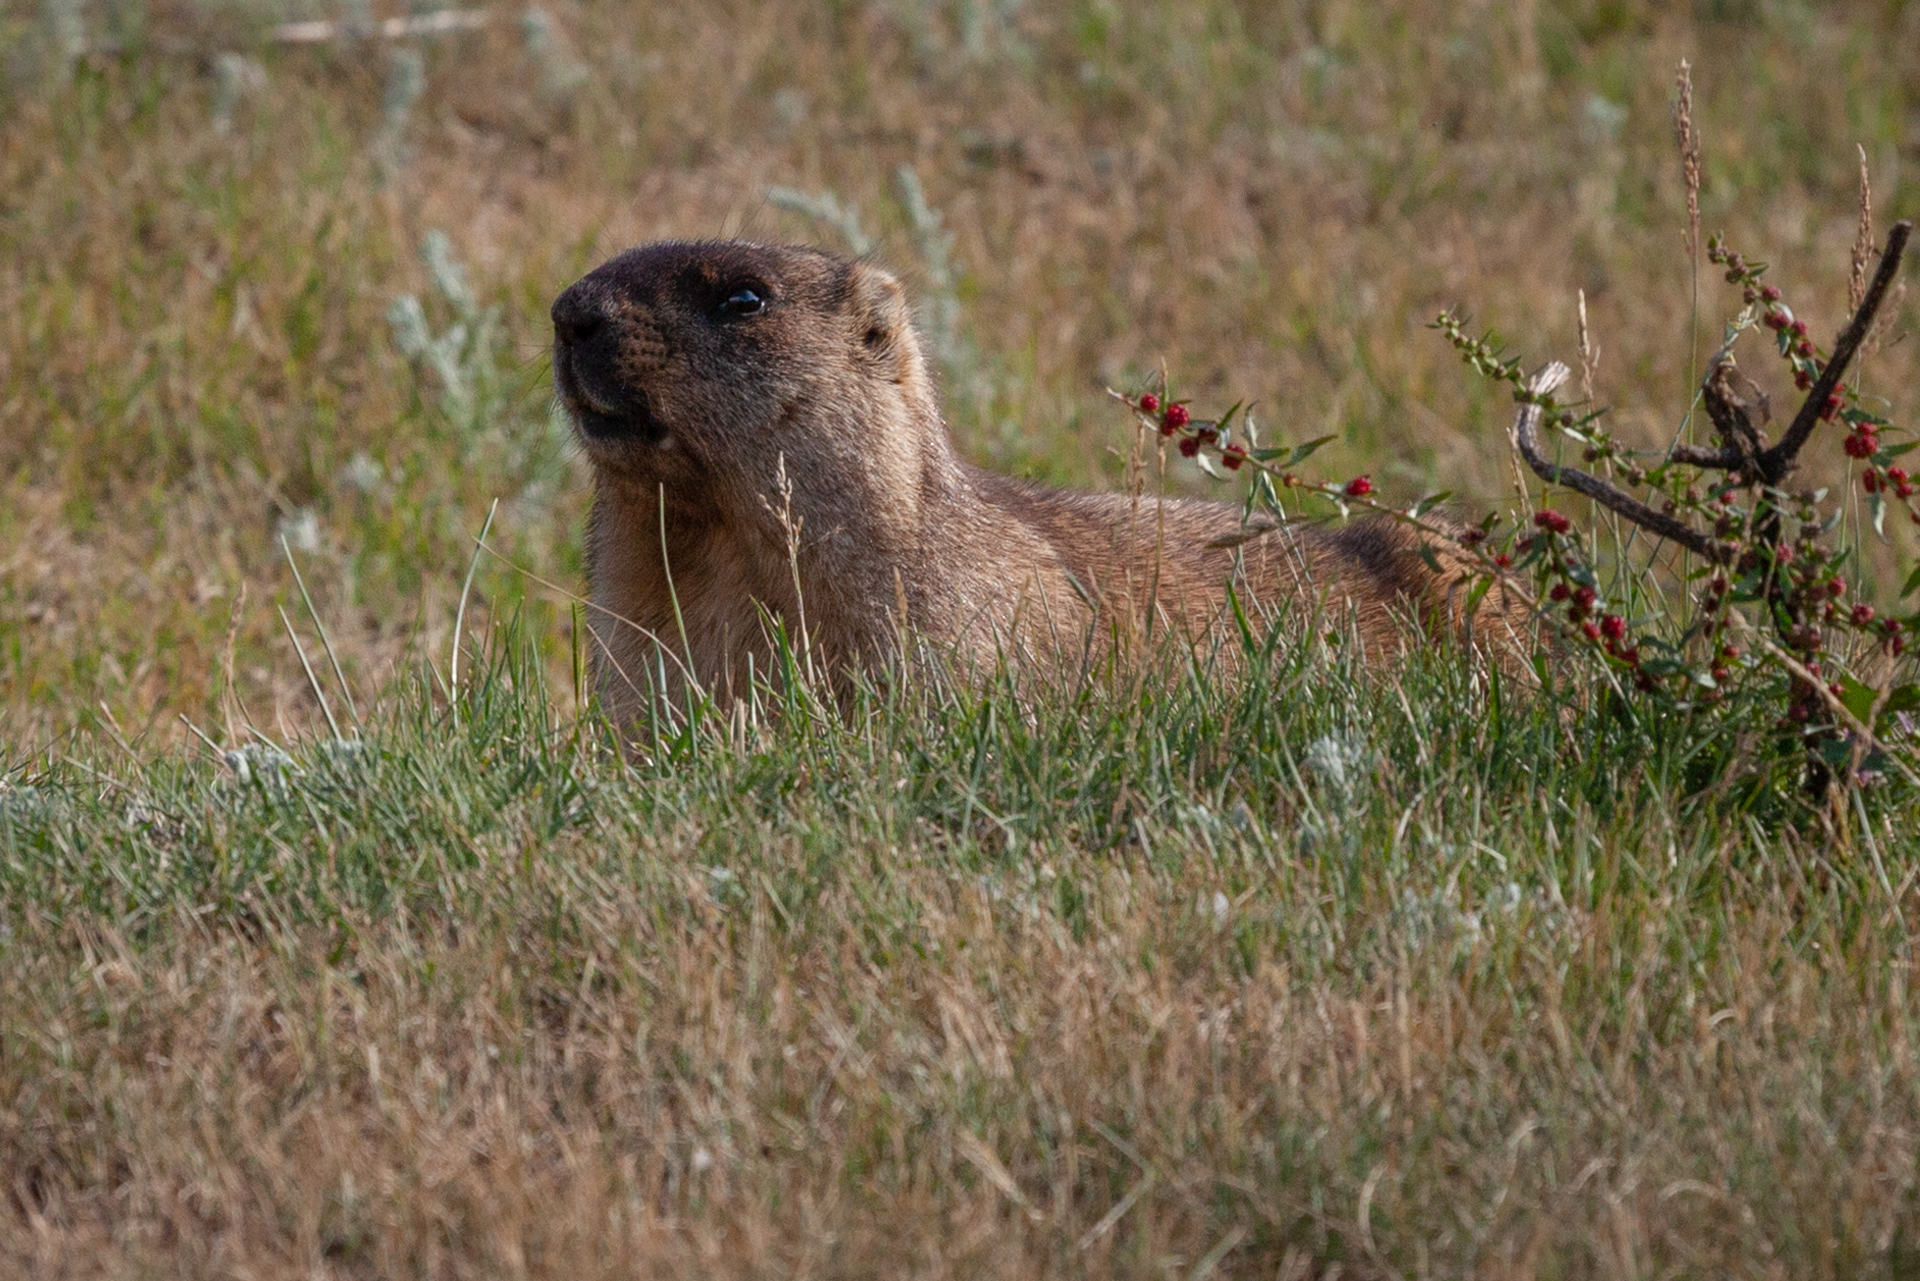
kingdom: Animalia
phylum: Chordata
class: Mammalia
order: Rodentia
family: Sciuridae
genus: Marmota
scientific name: Marmota bobak
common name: Bobak marmot
